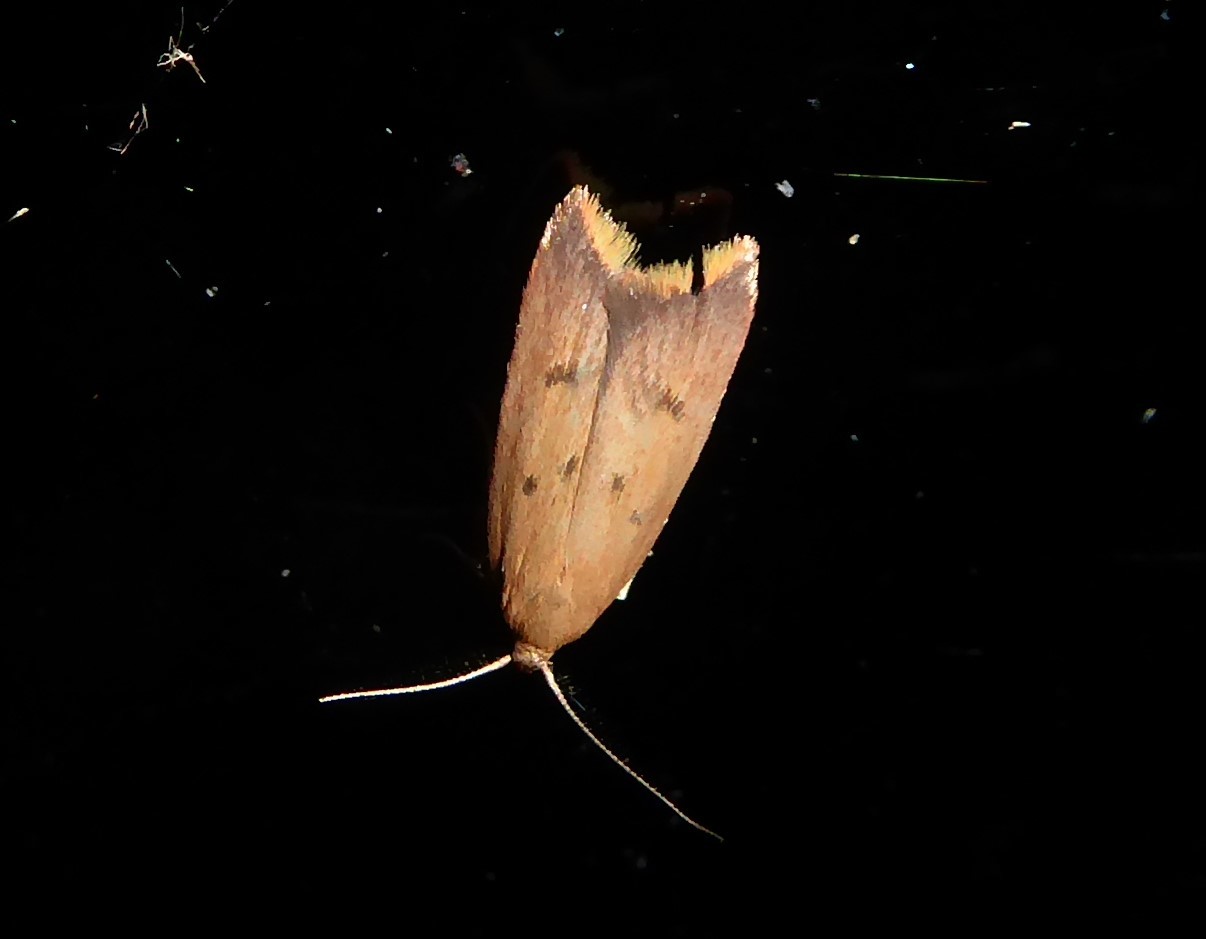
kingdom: Animalia
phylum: Arthropoda
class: Insecta
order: Lepidoptera
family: Oecophoridae
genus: Tachystola
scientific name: Tachystola acroxantha
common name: Ruddy streak
